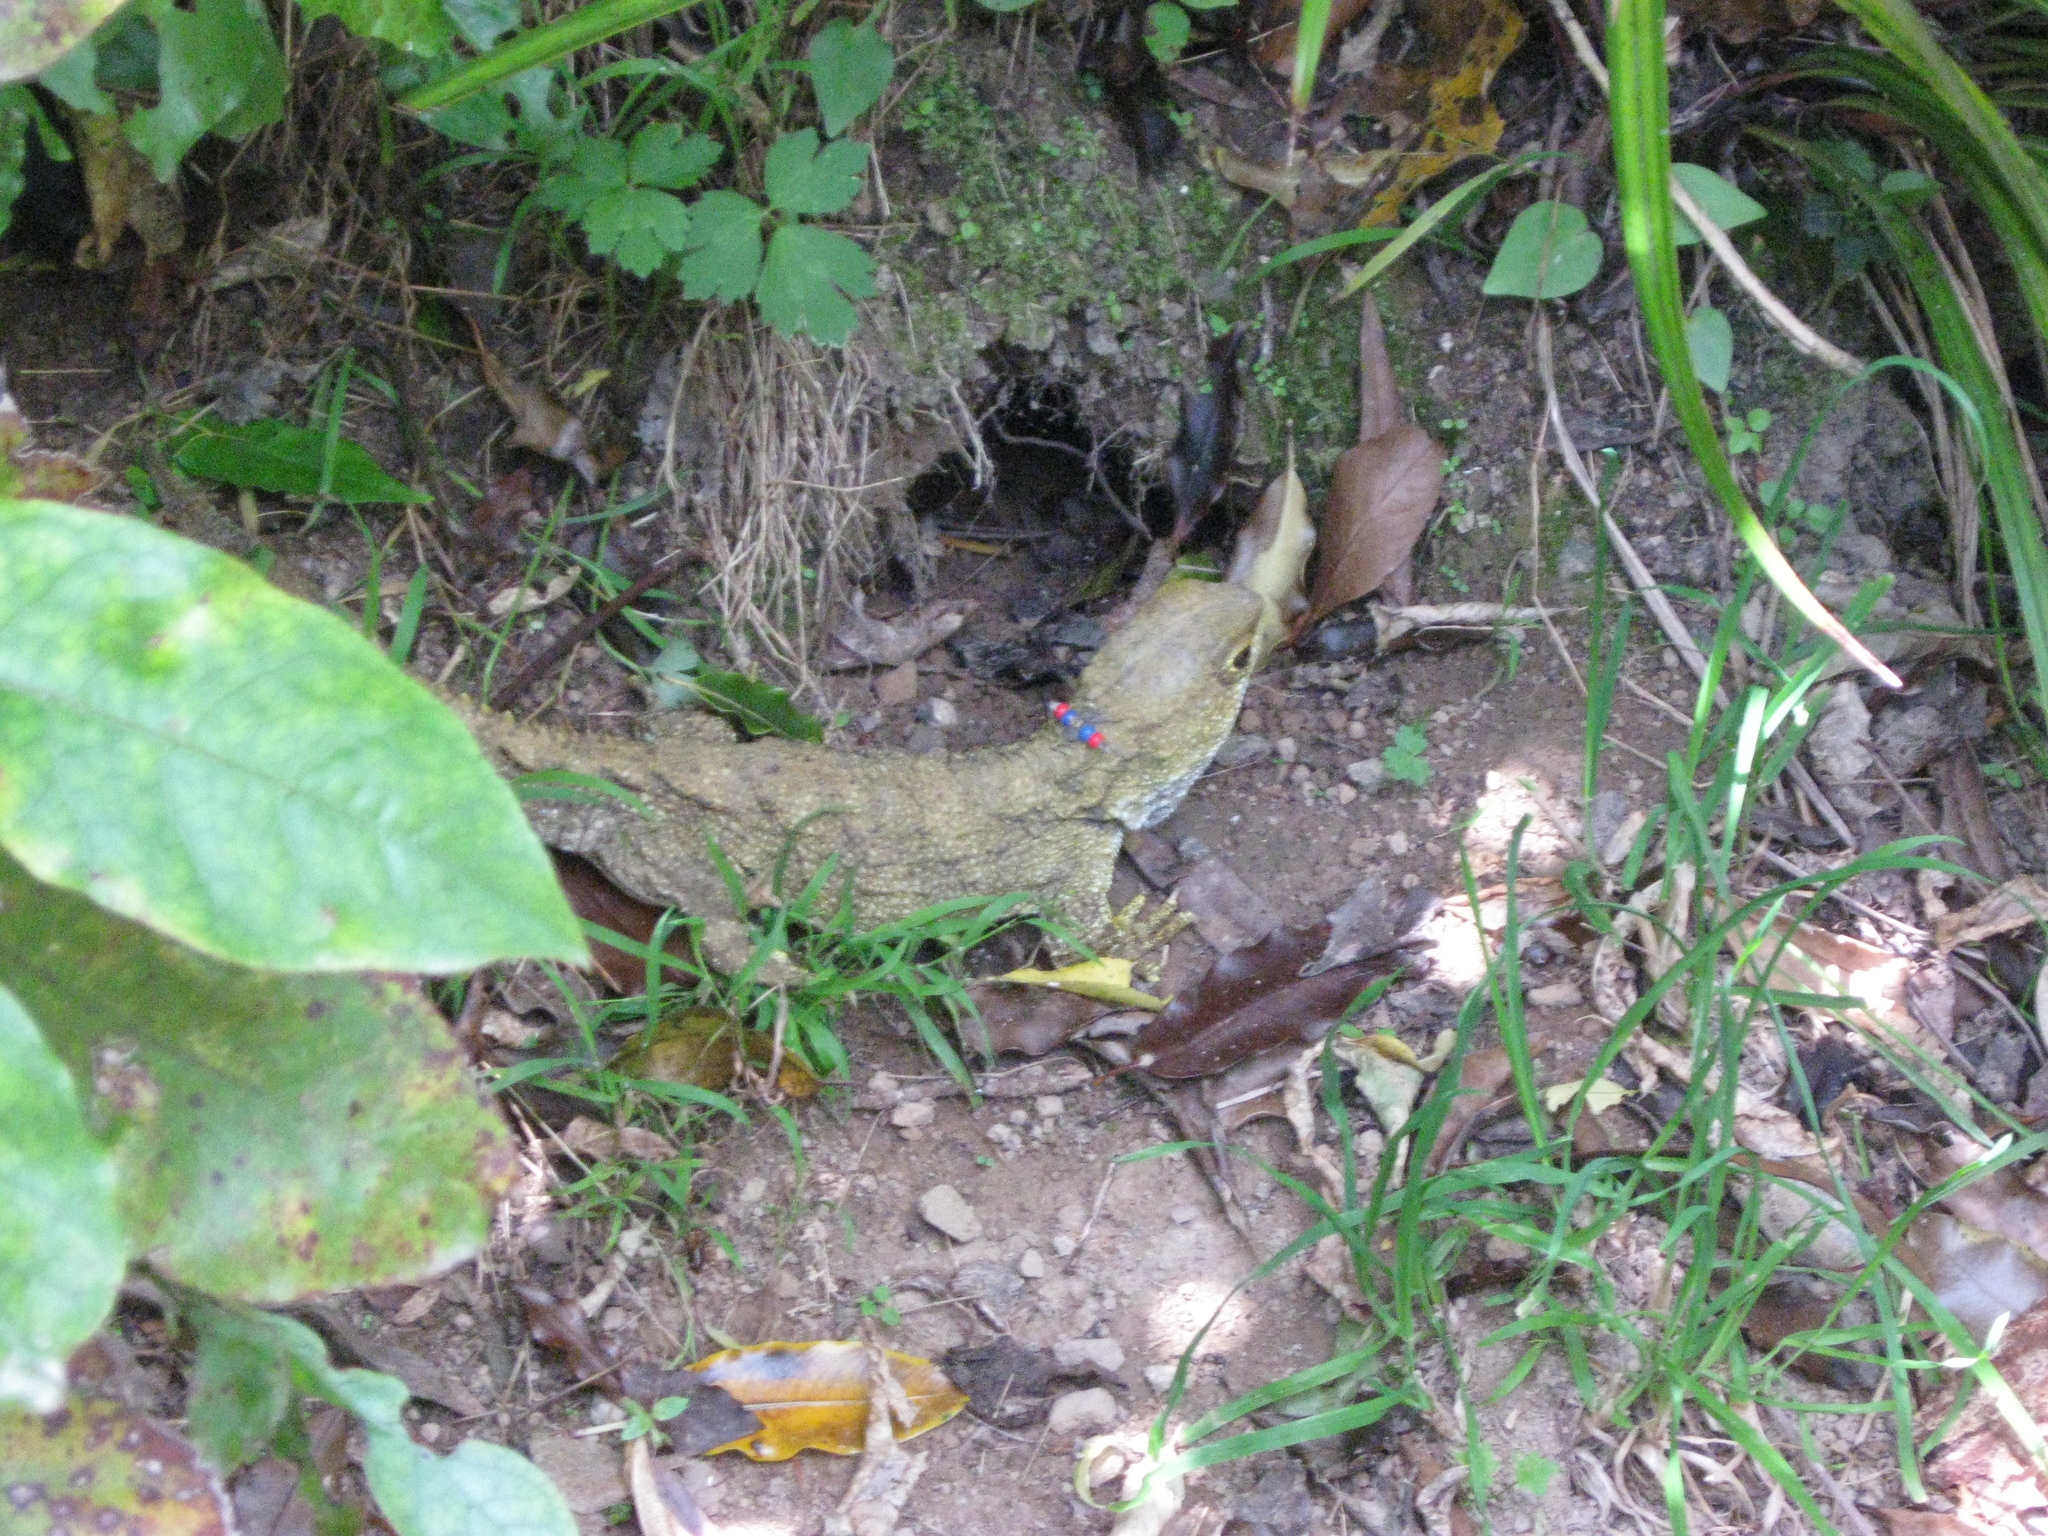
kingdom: Animalia
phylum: Chordata
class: Sphenodontia
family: Sphenodontidae
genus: Sphenodon
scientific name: Sphenodon punctatus
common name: Tuatara
